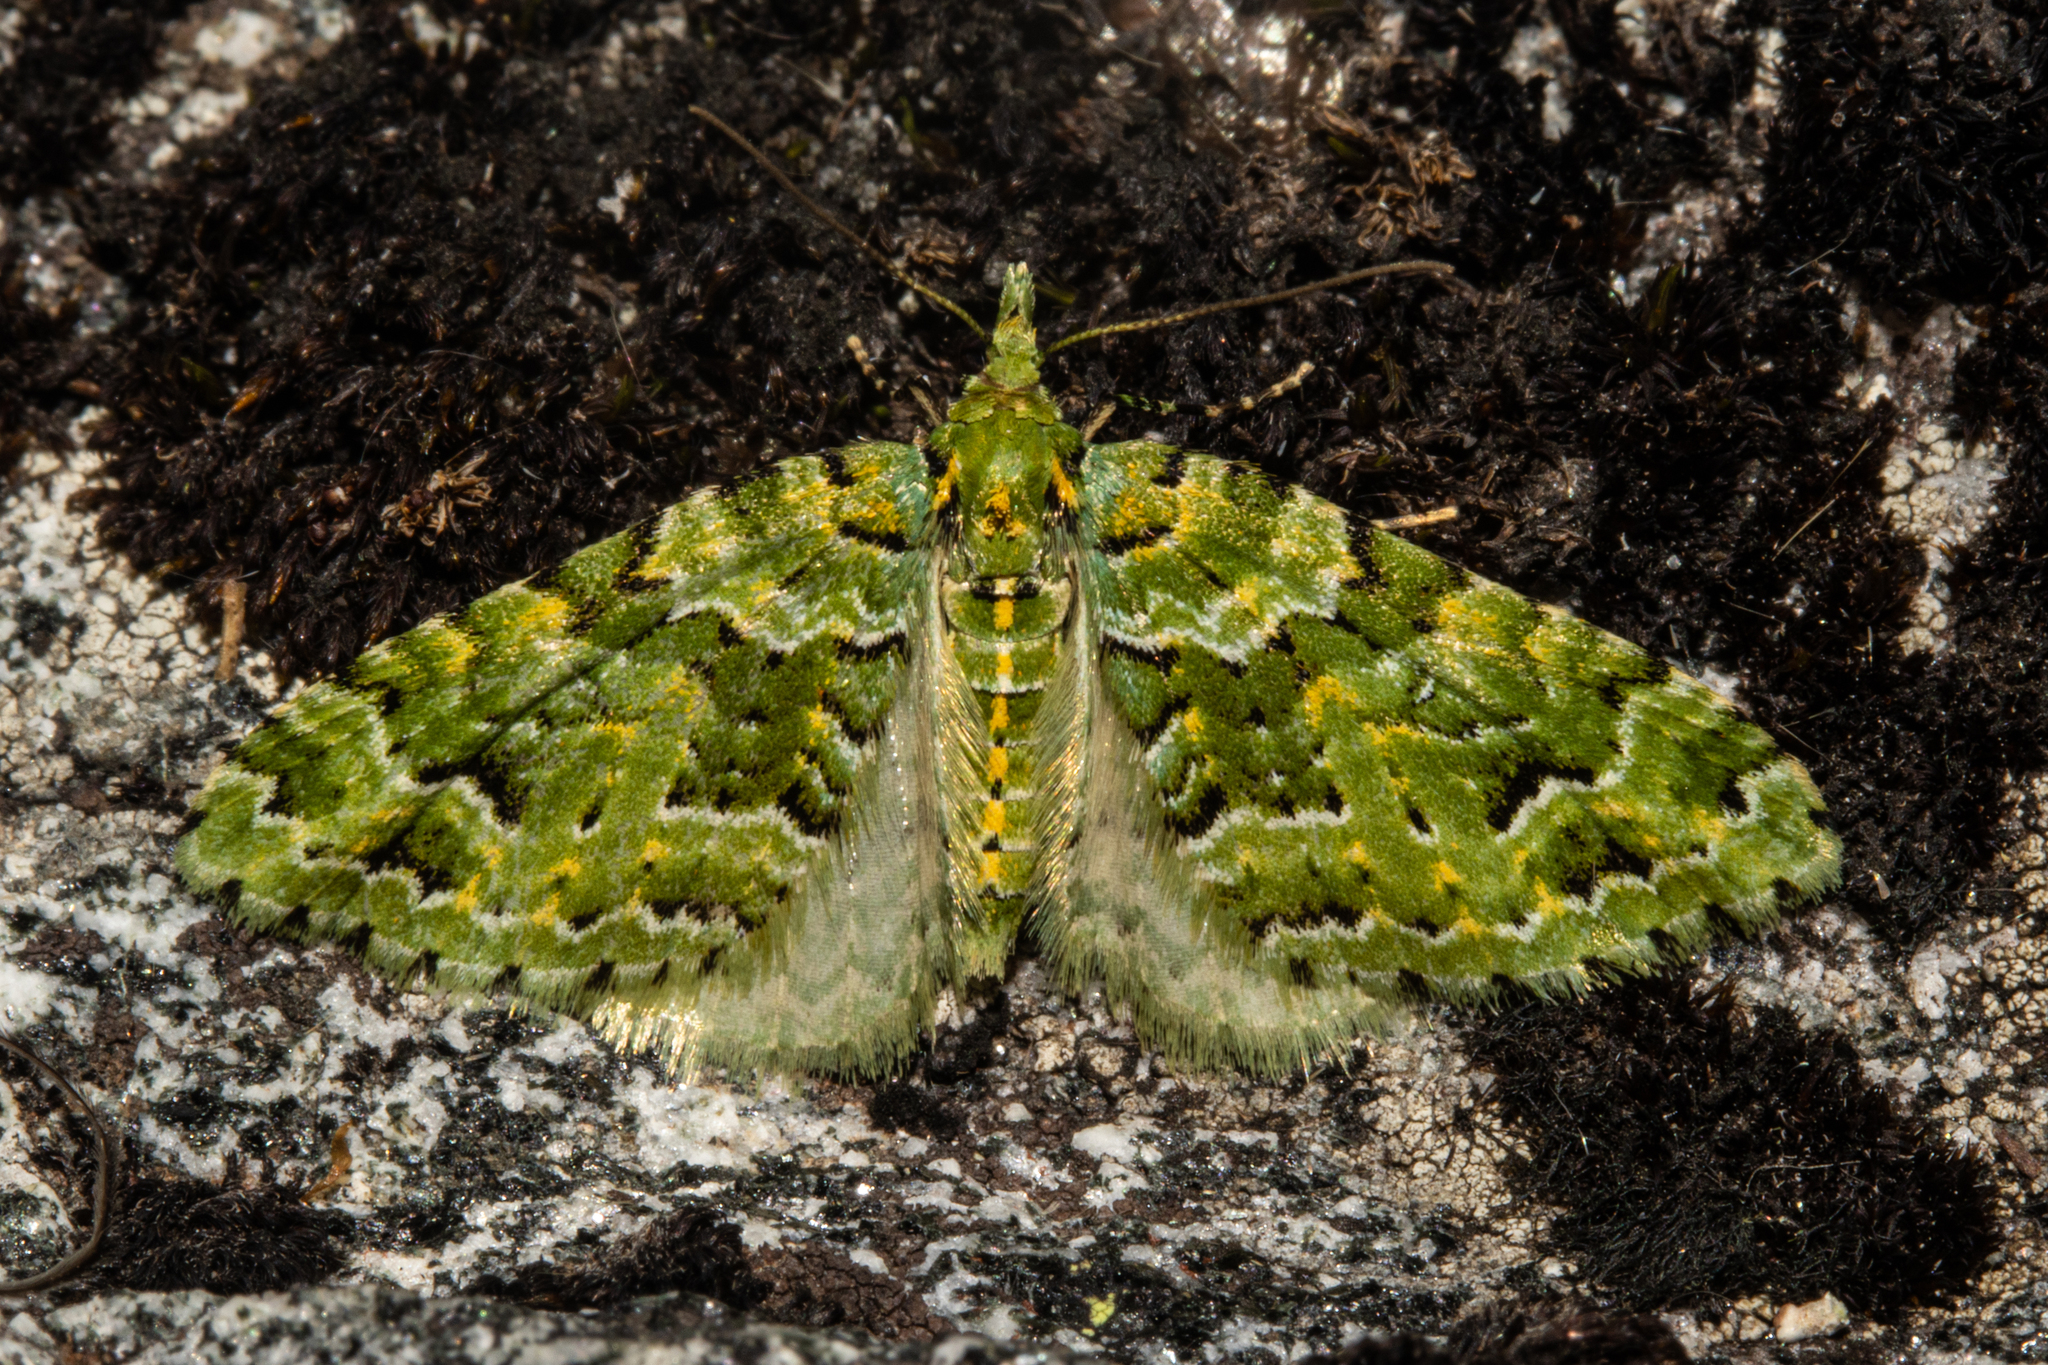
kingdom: Animalia
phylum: Arthropoda
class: Insecta
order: Lepidoptera
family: Geometridae
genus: Pasiphila
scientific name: Pasiphila melochlora
